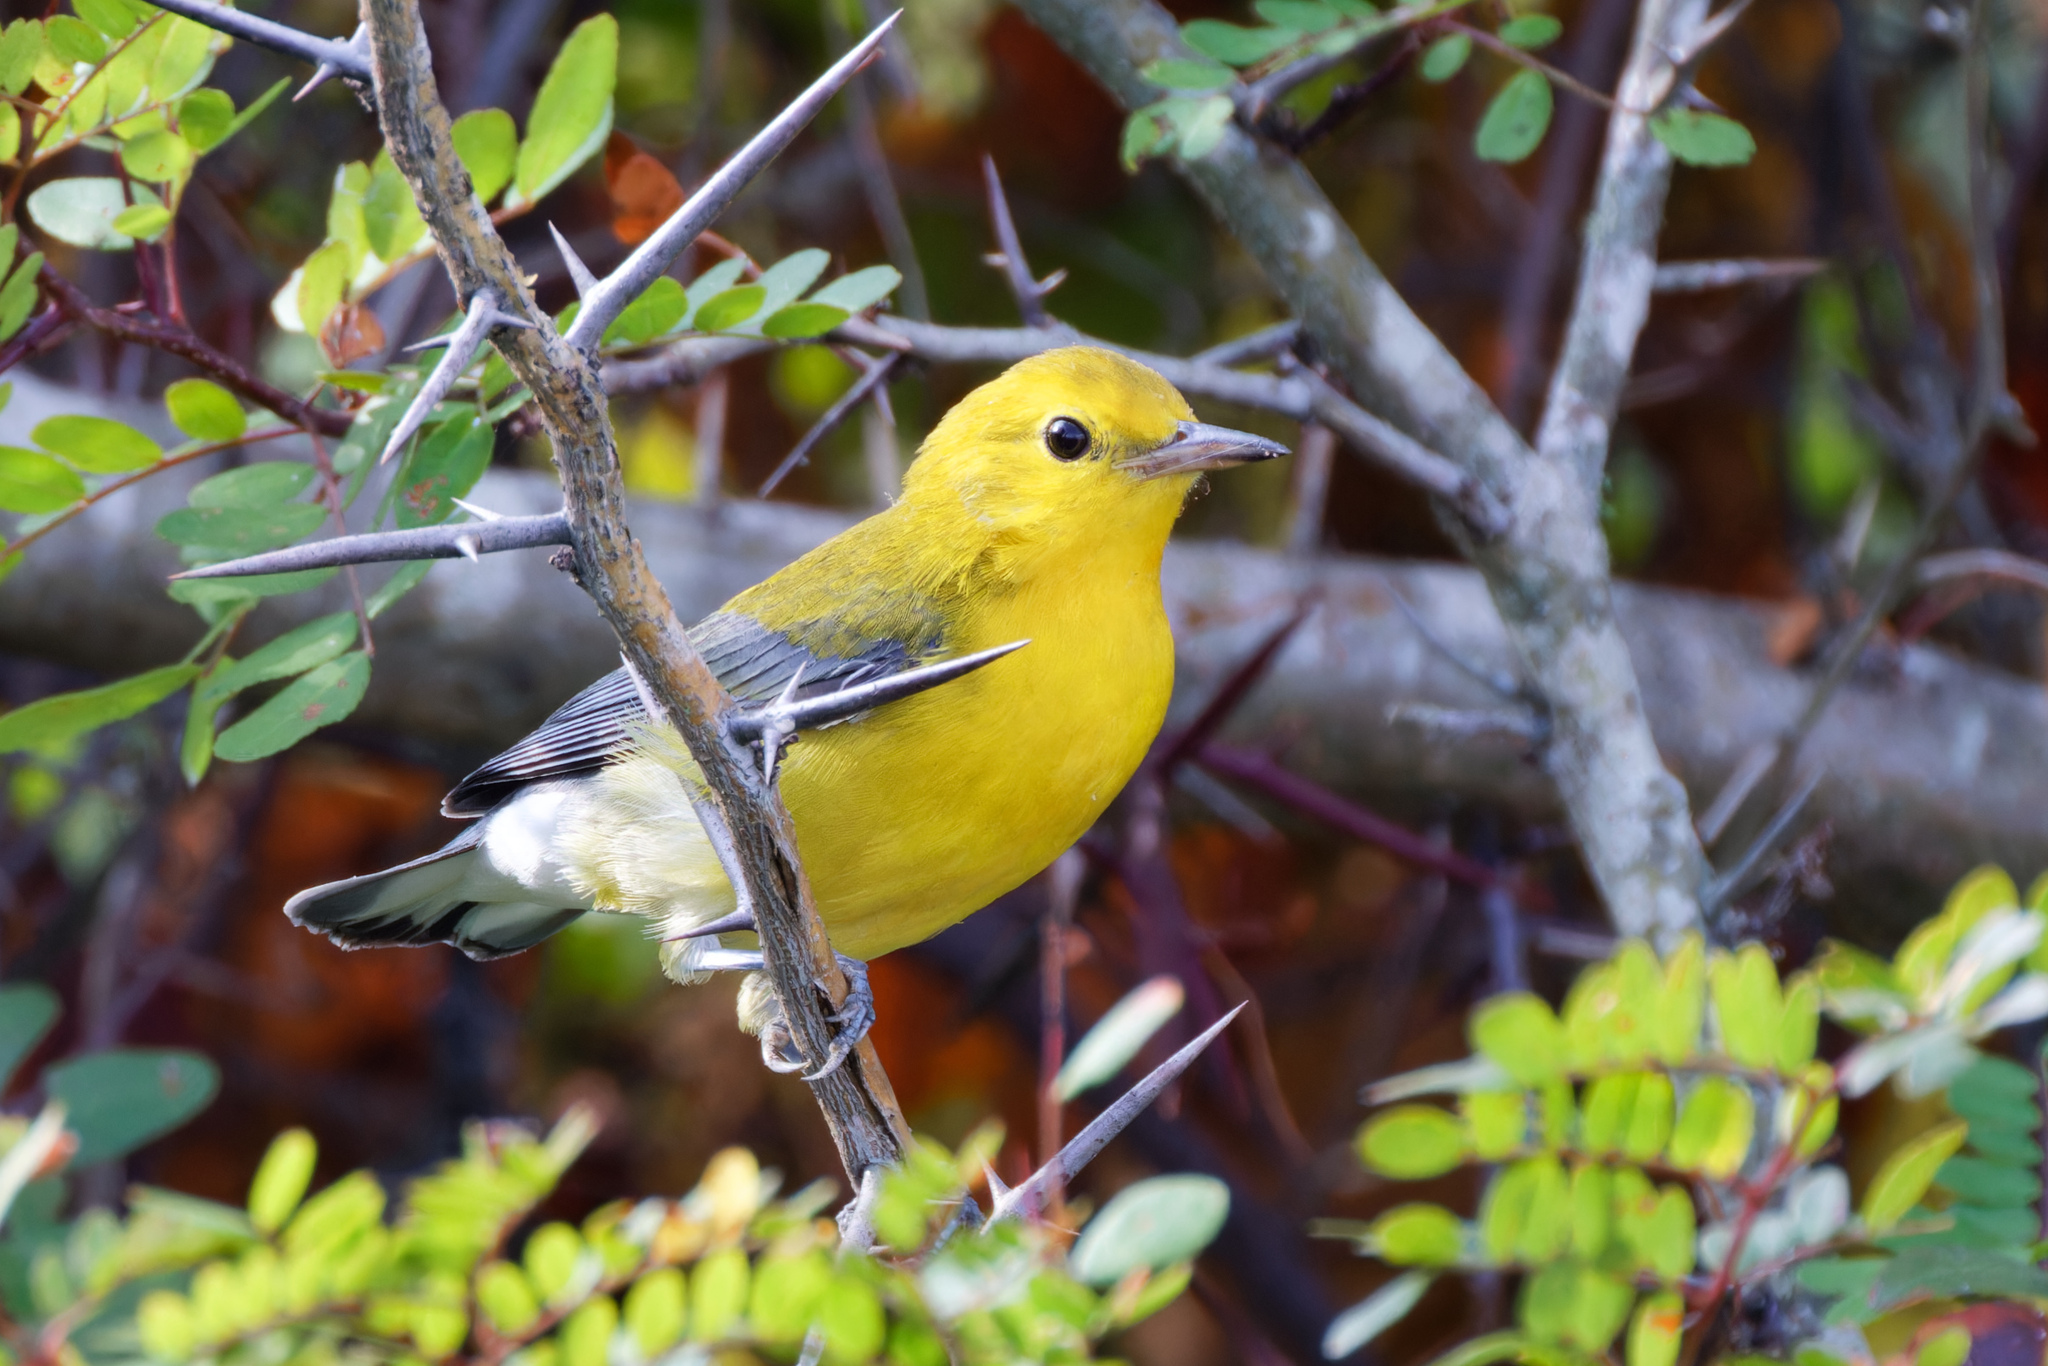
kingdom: Animalia
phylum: Chordata
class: Aves
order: Passeriformes
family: Parulidae
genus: Protonotaria
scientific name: Protonotaria citrea
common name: Prothonotary warbler
